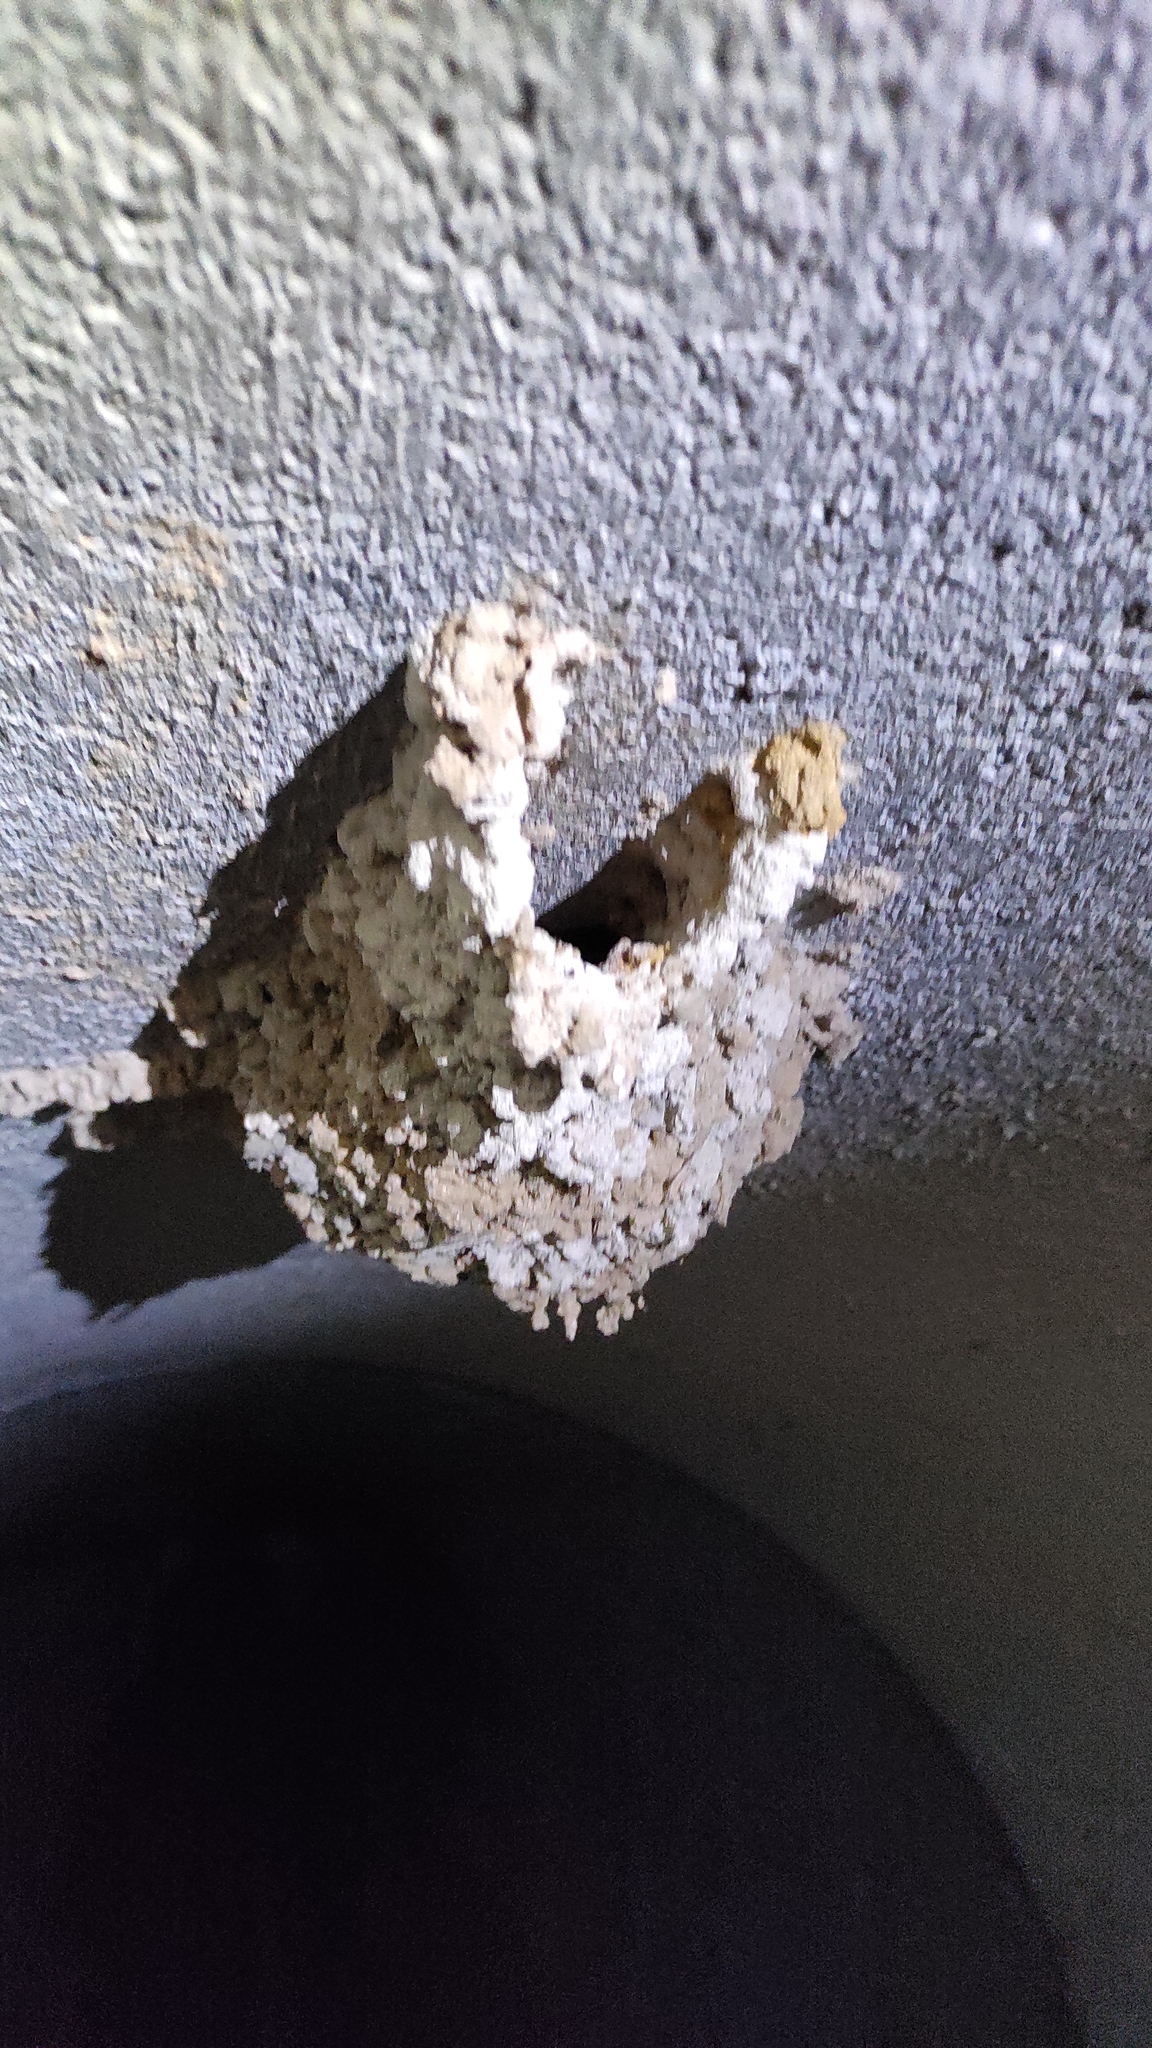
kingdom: Animalia
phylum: Chordata
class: Aves
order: Passeriformes
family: Hirundinidae
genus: Cecropis
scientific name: Cecropis daurica
